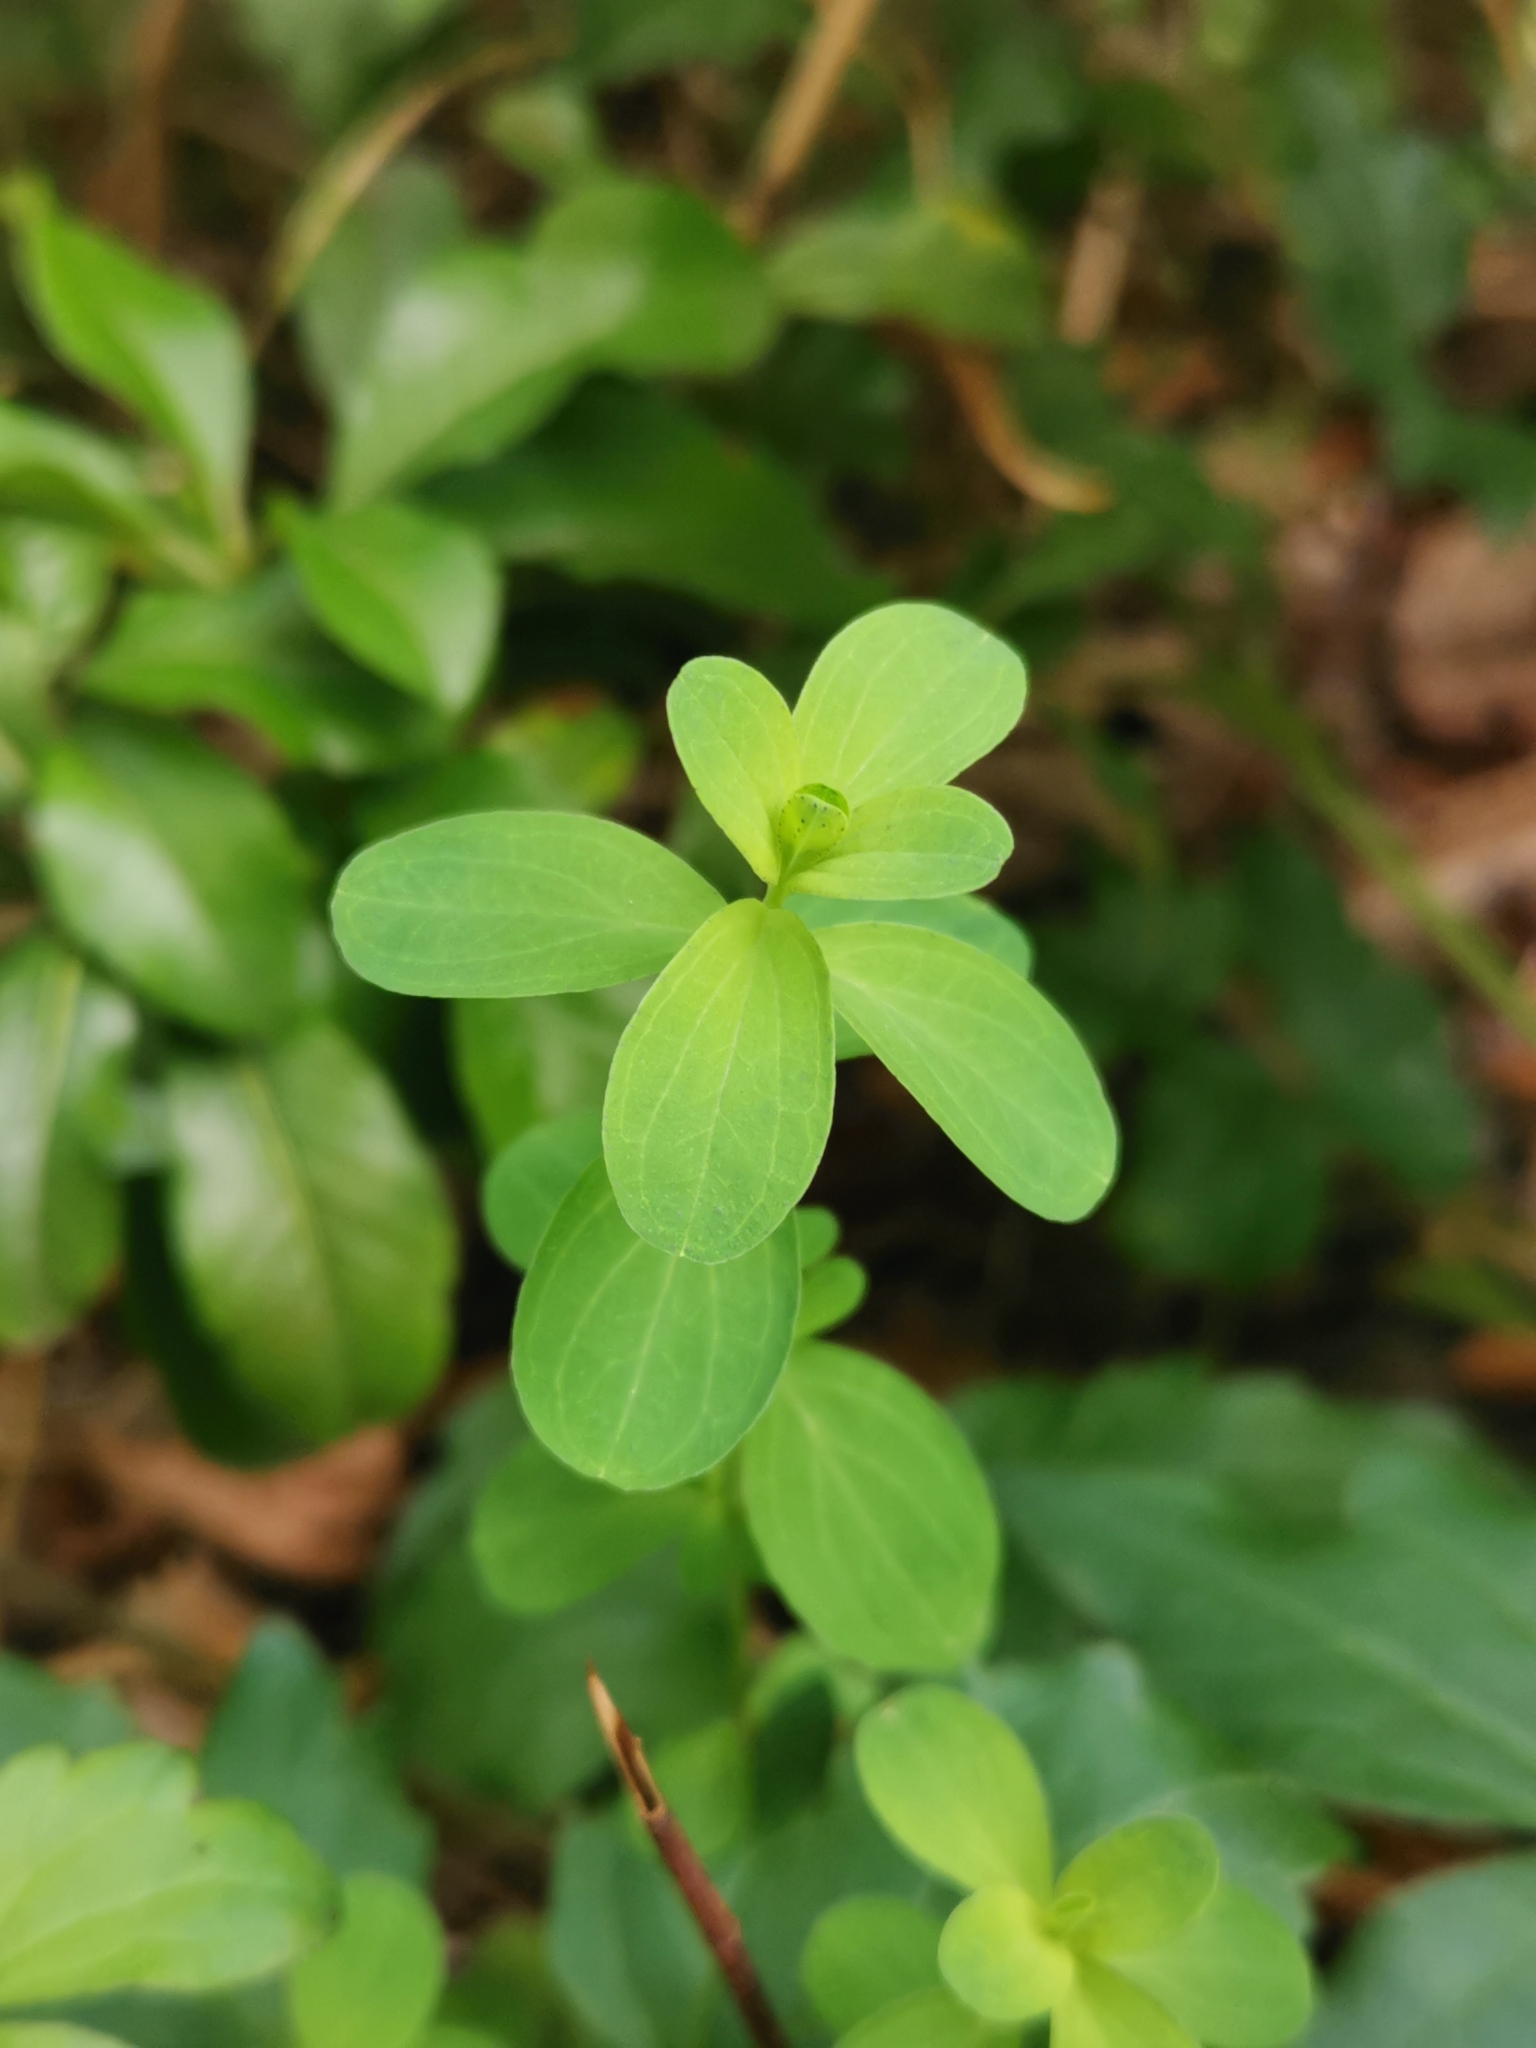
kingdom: Plantae
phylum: Tracheophyta
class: Magnoliopsida
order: Malpighiales
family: Hypericaceae
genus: Hypericum
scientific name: Hypericum perforatum
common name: Common st. johnswort
